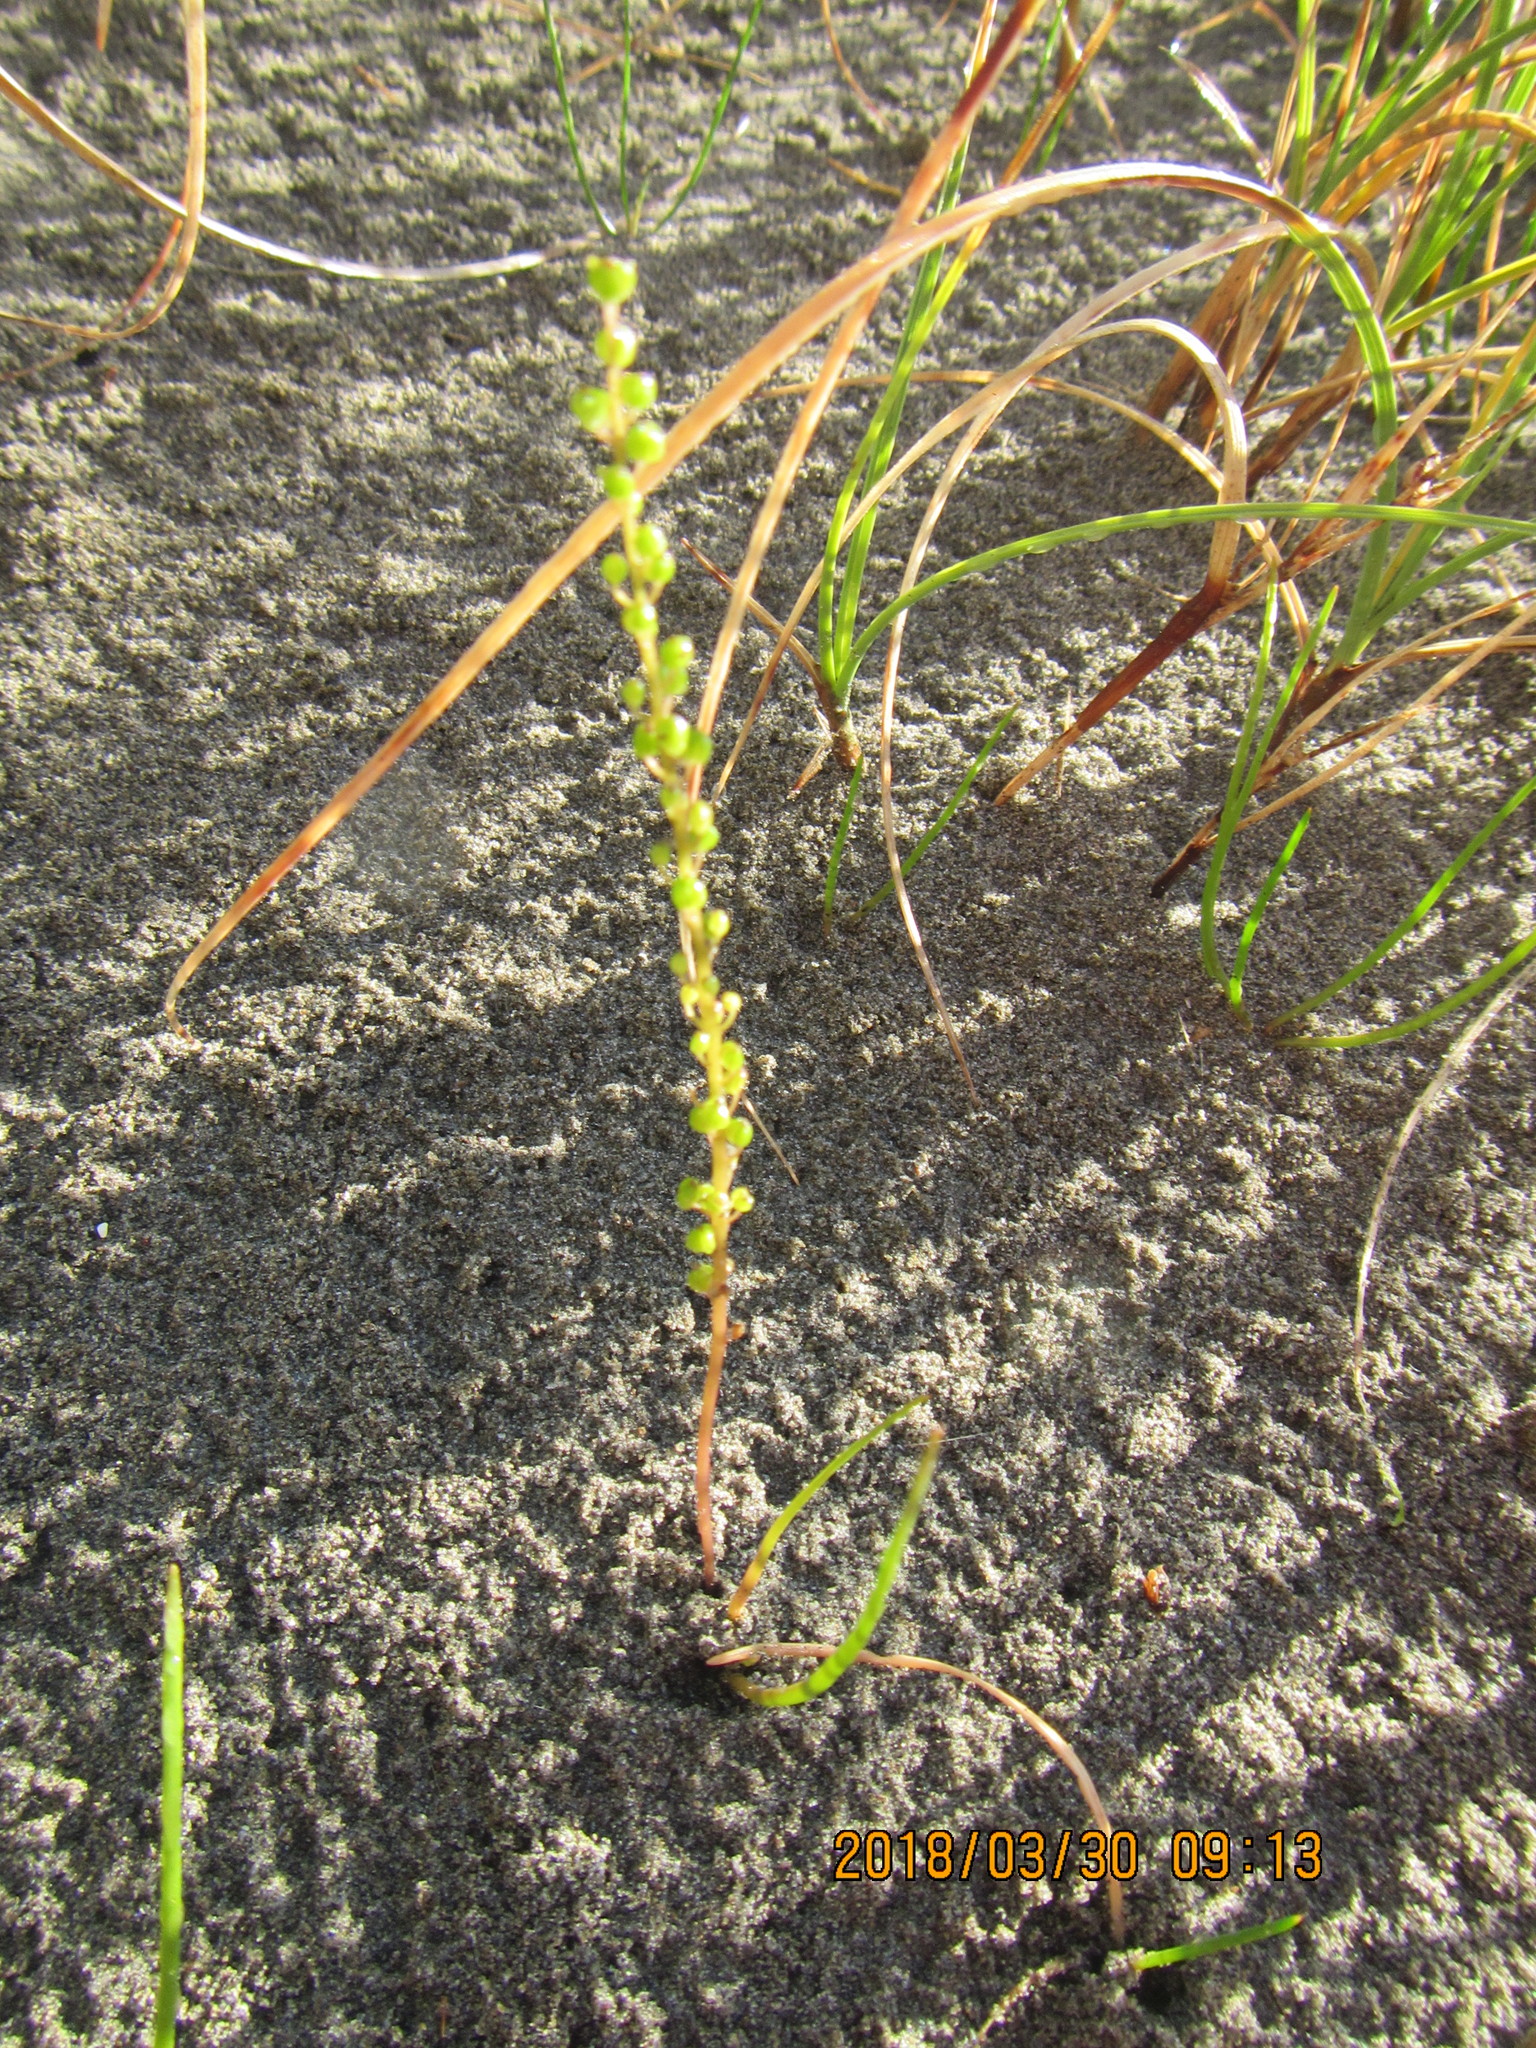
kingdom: Plantae
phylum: Tracheophyta
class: Liliopsida
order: Alismatales
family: Juncaginaceae
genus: Triglochin
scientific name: Triglochin striata
